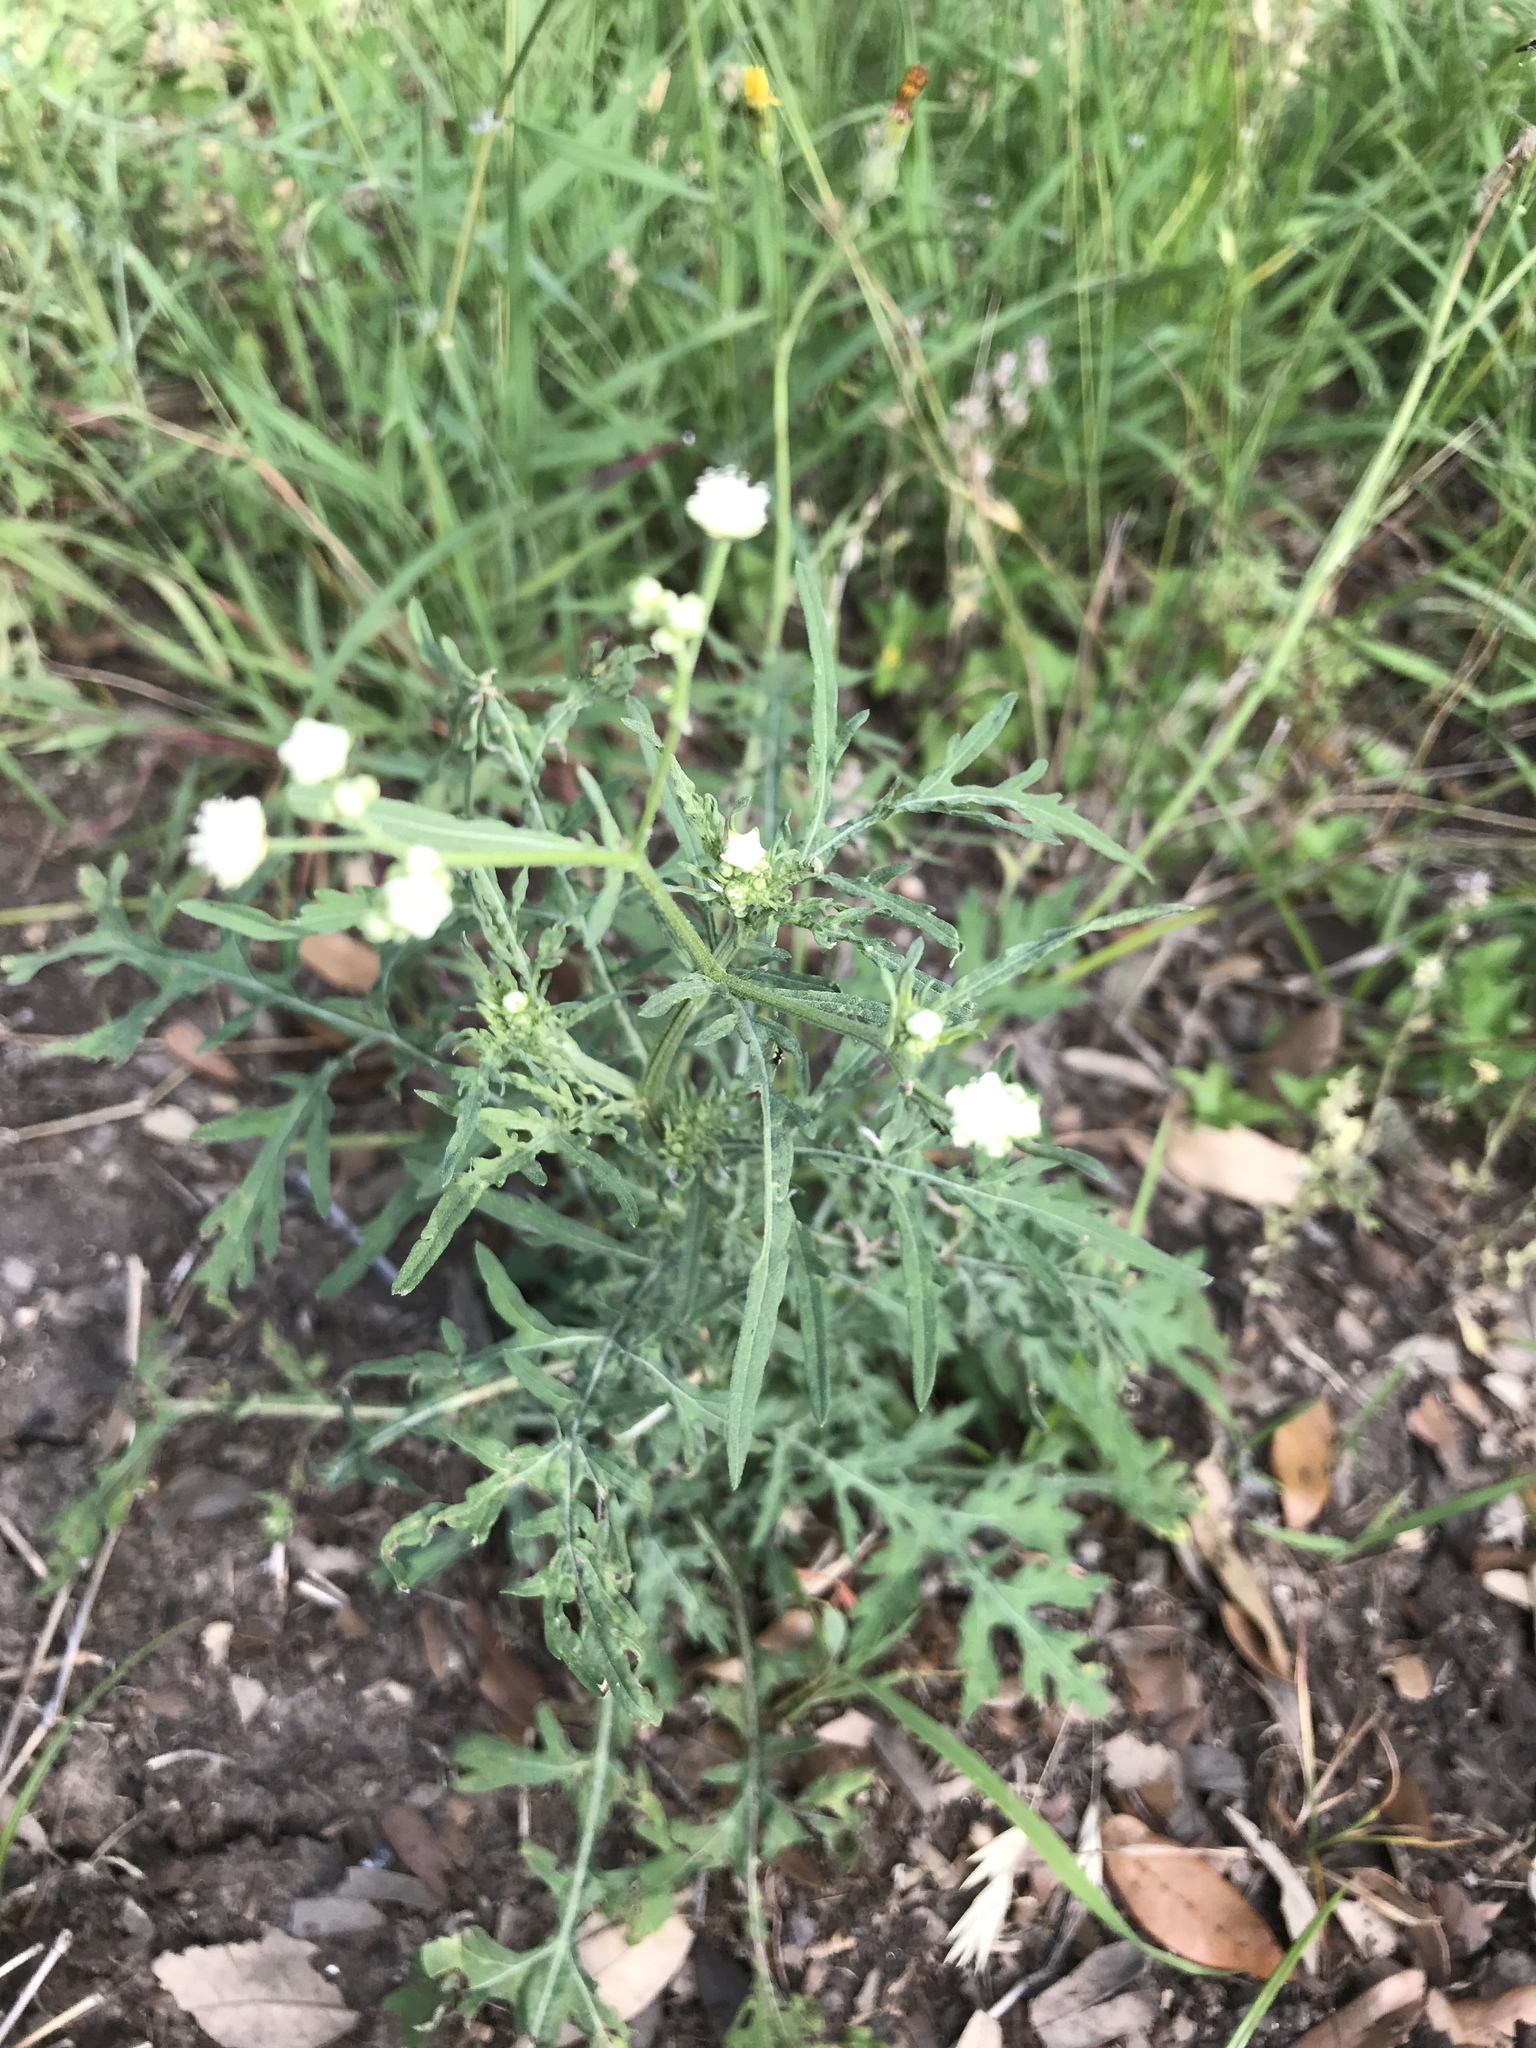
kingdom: Plantae
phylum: Tracheophyta
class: Magnoliopsida
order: Asterales
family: Asteraceae
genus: Parthenium
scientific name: Parthenium hysterophorus
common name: Santa maria feverfew
